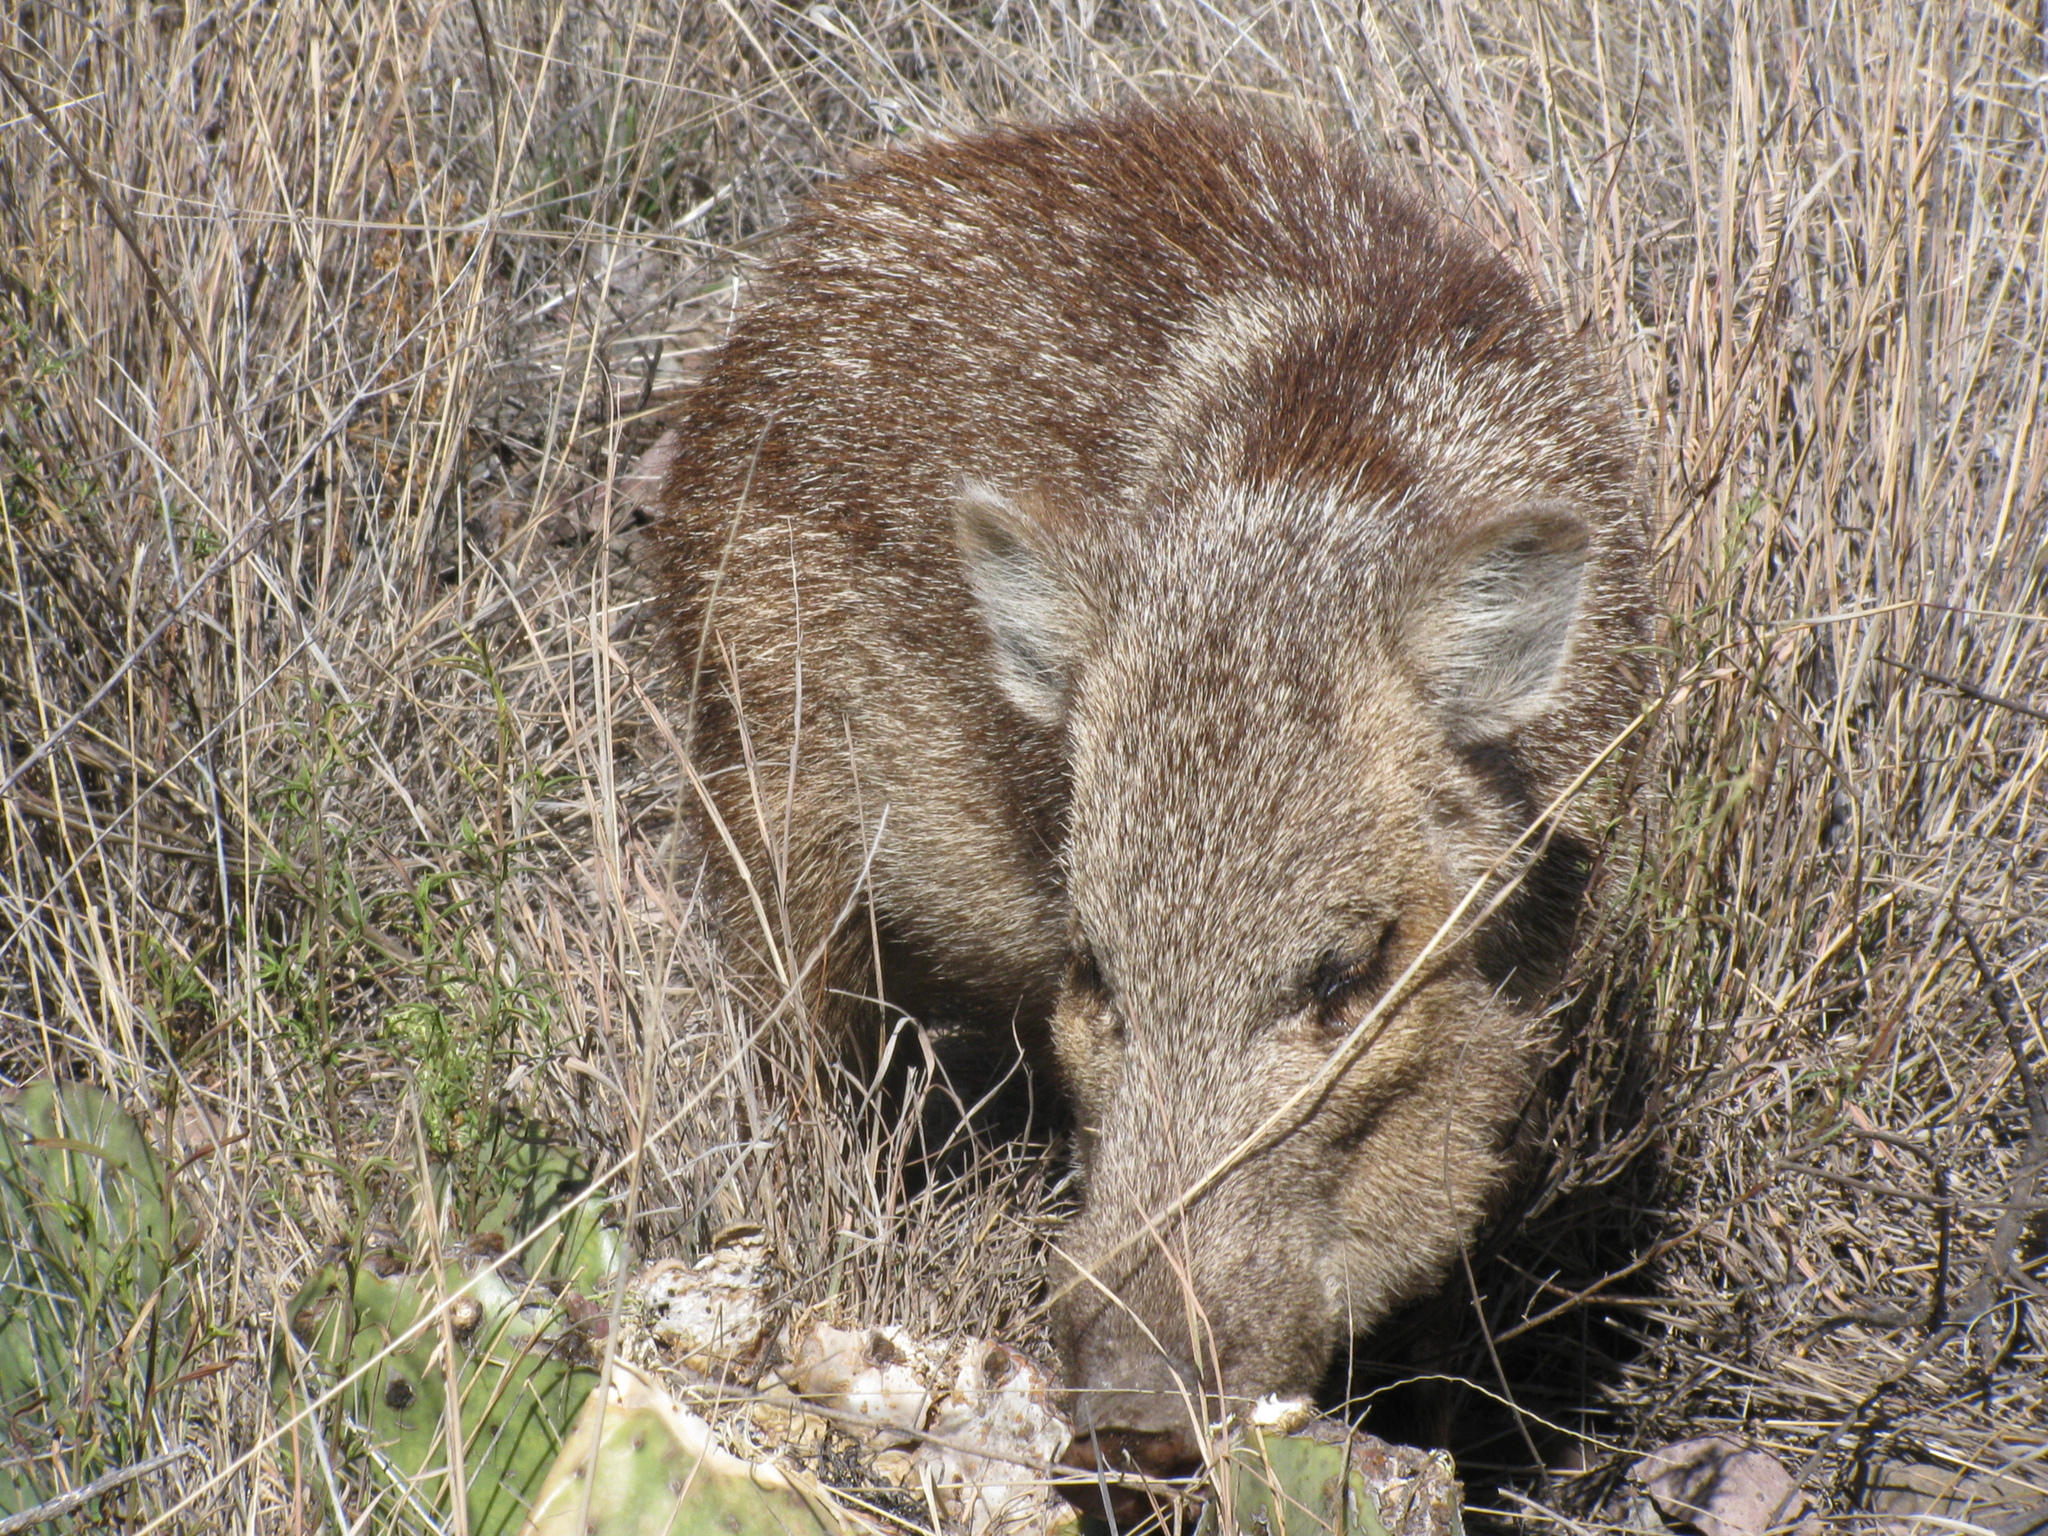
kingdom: Animalia
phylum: Chordata
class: Mammalia
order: Artiodactyla
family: Tayassuidae
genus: Pecari
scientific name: Pecari tajacu
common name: Collared peccary
